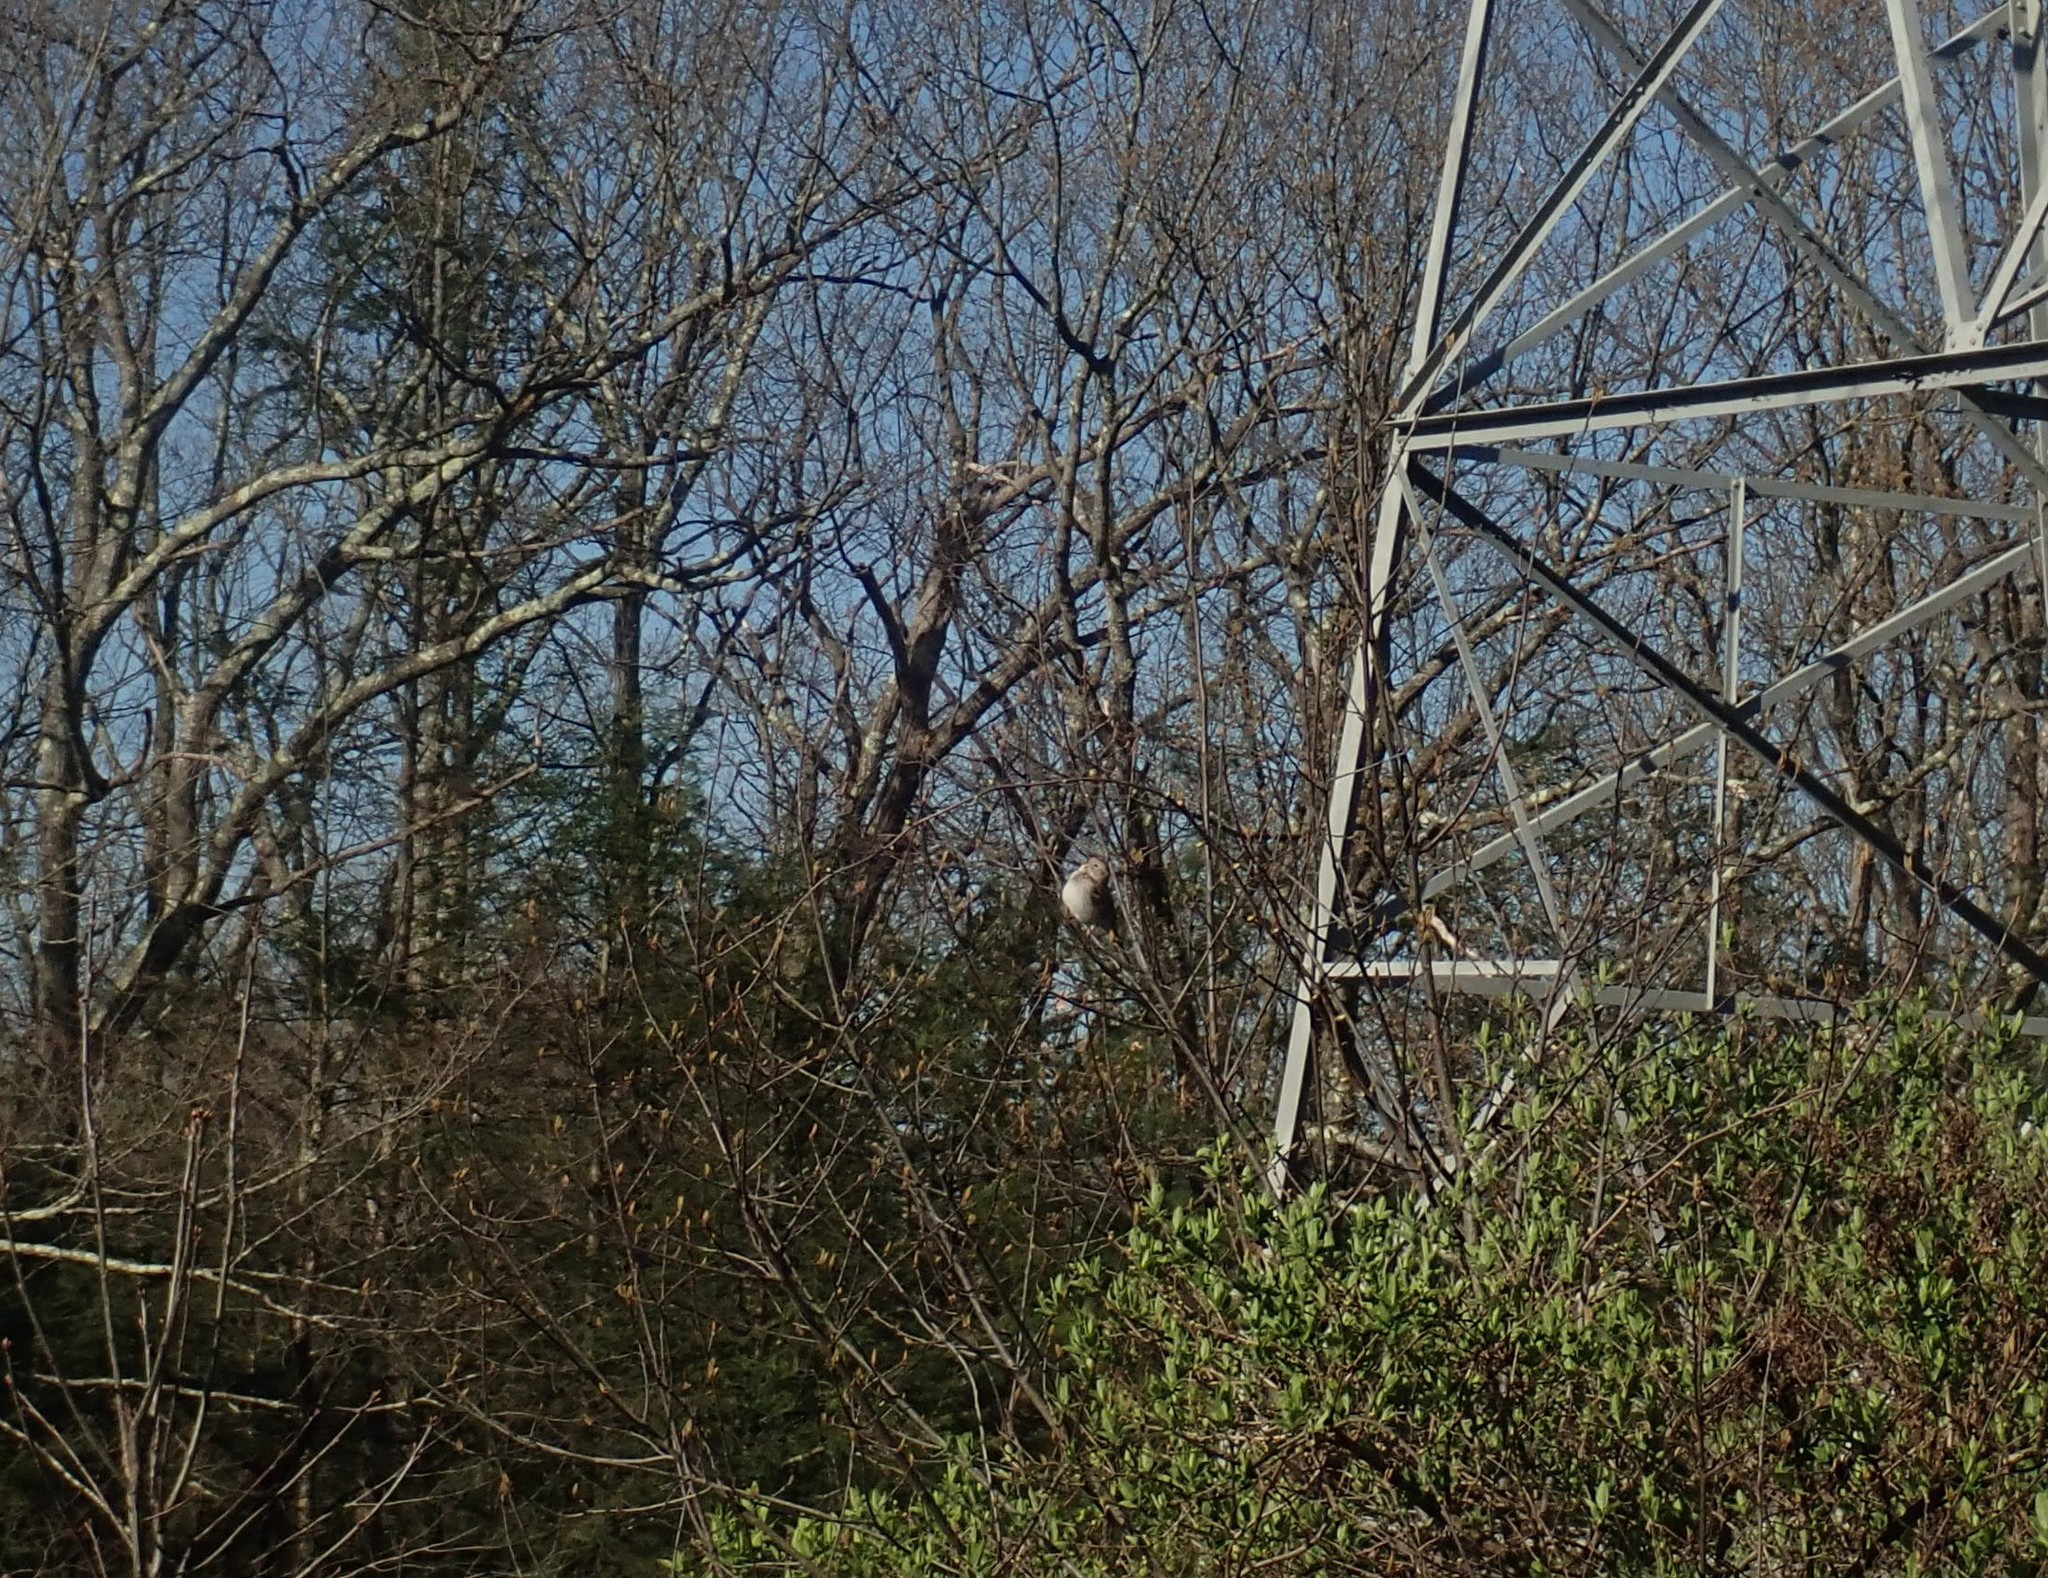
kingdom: Animalia
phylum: Chordata
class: Aves
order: Passeriformes
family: Passerellidae
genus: Spizella
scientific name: Spizella pusilla
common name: Field sparrow
